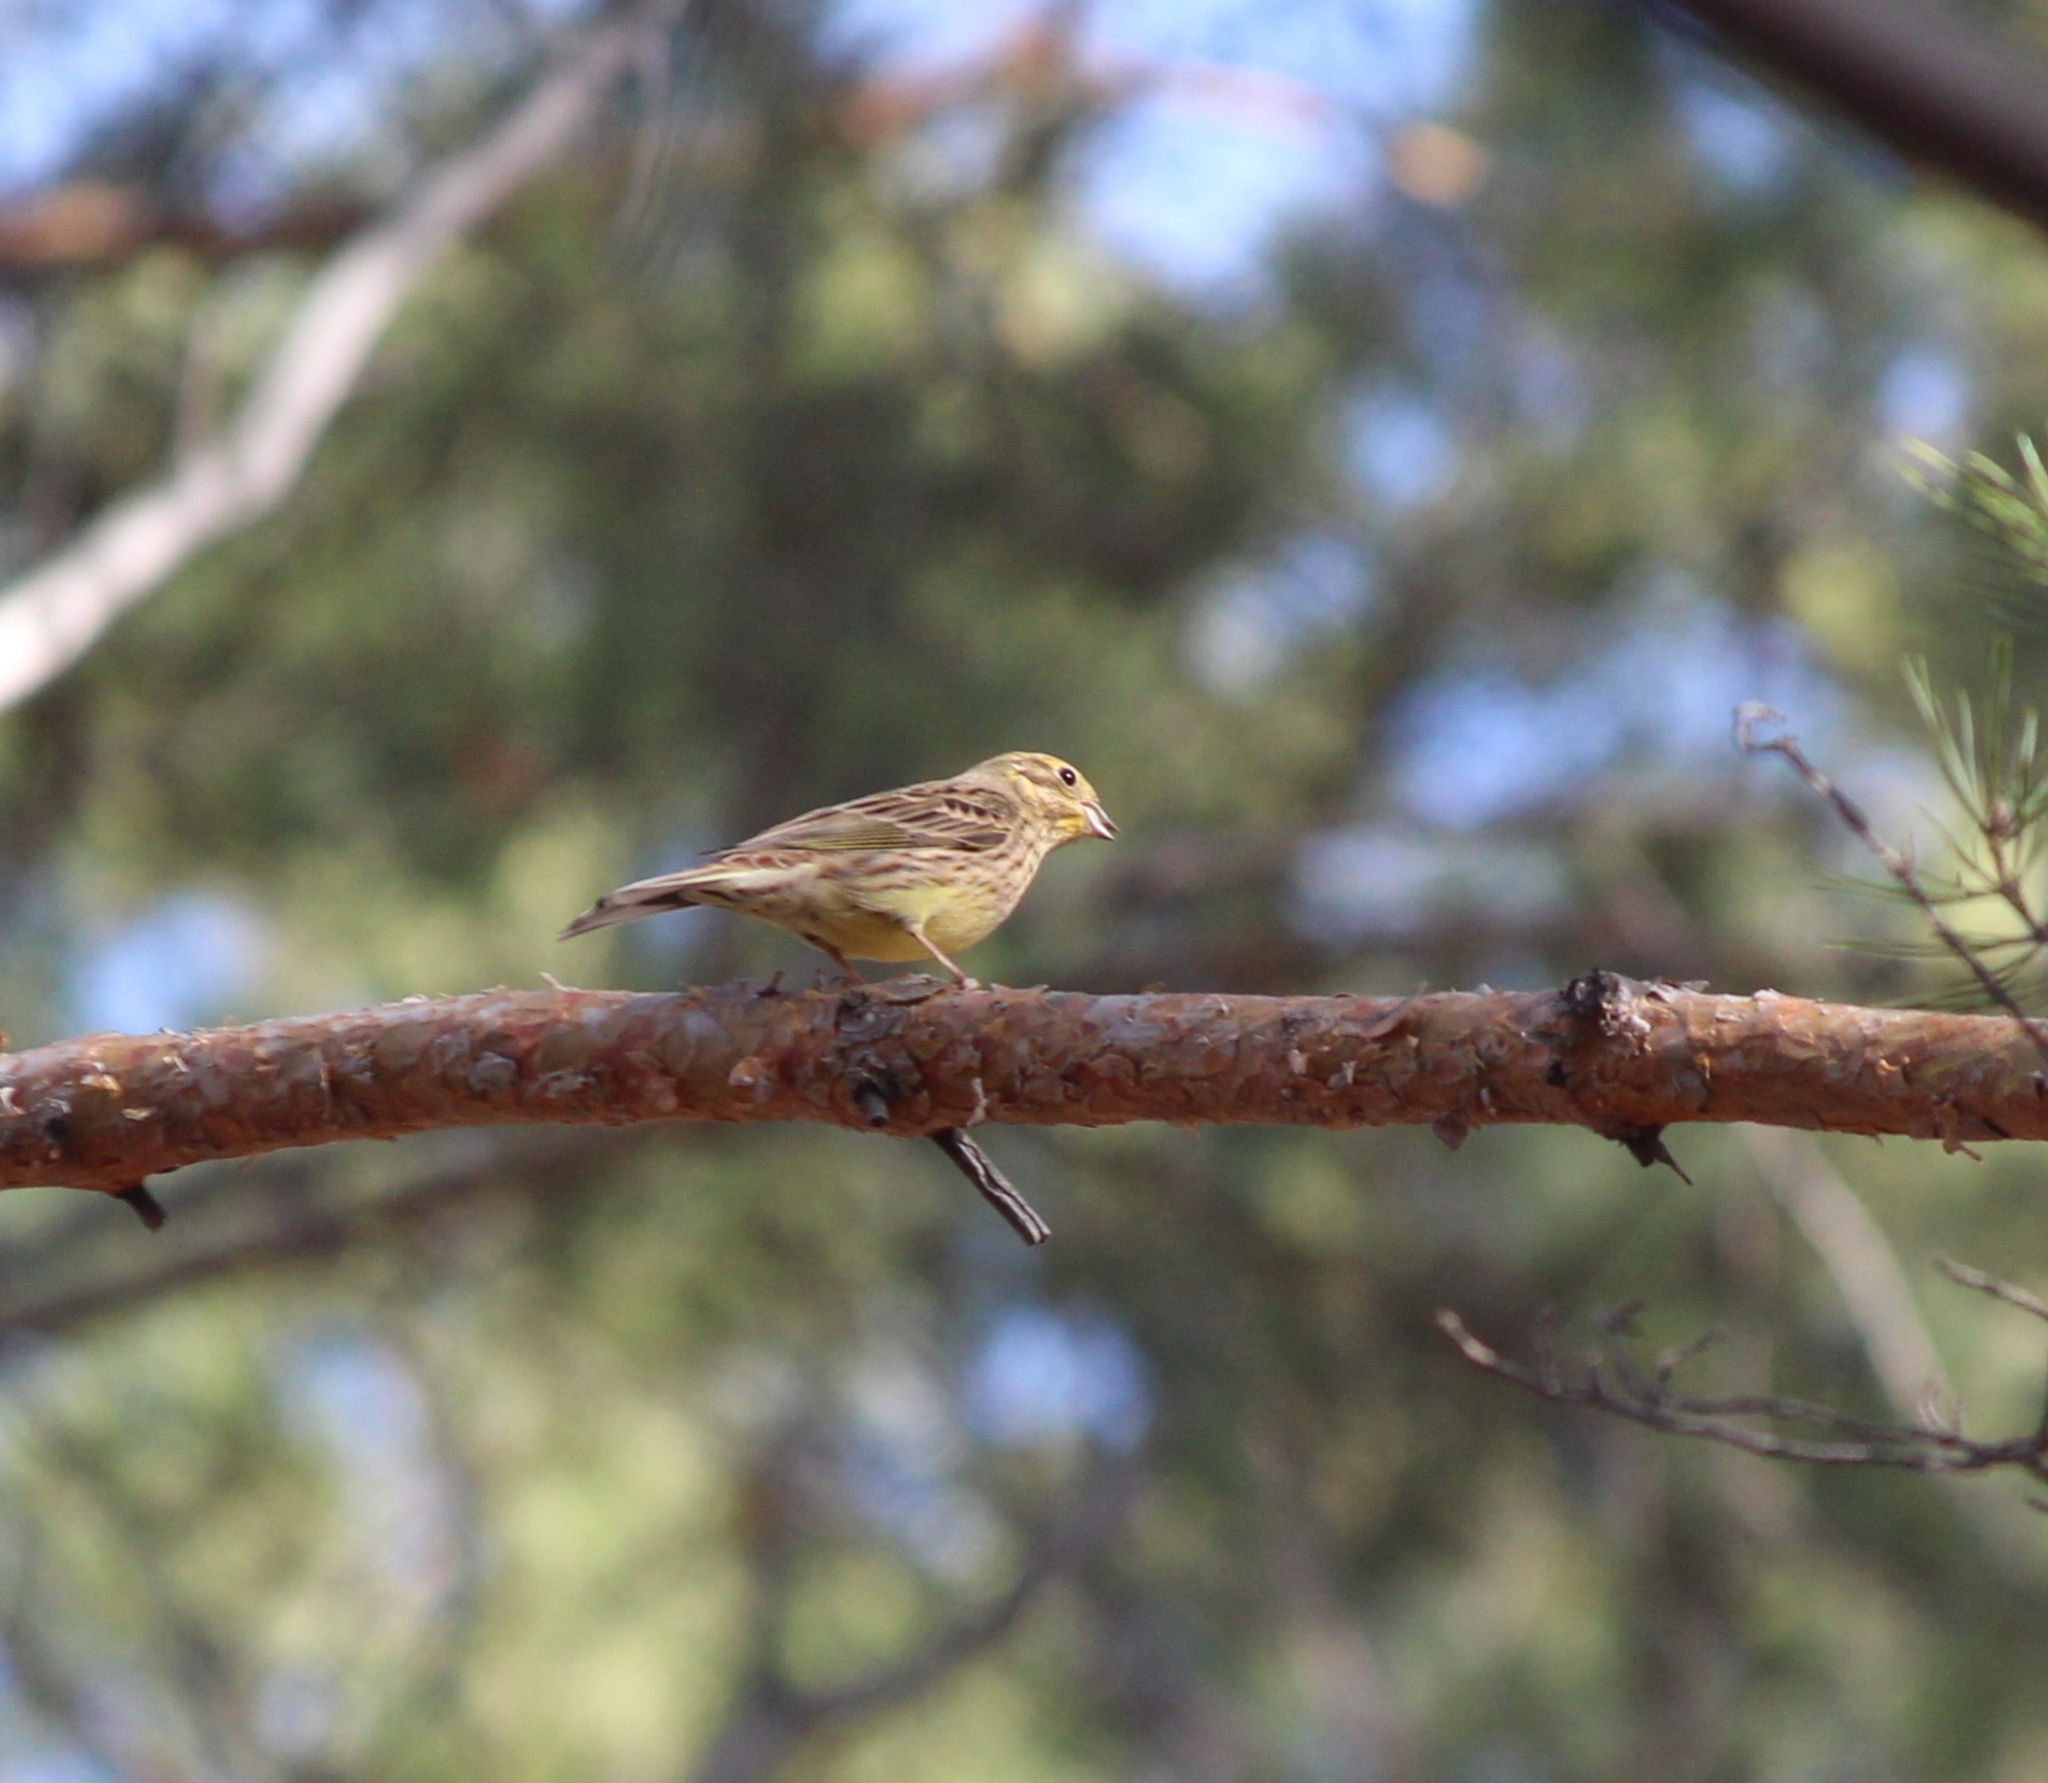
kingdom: Animalia
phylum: Chordata
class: Aves
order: Passeriformes
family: Emberizidae
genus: Emberiza
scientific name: Emberiza citrinella
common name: Yellowhammer
